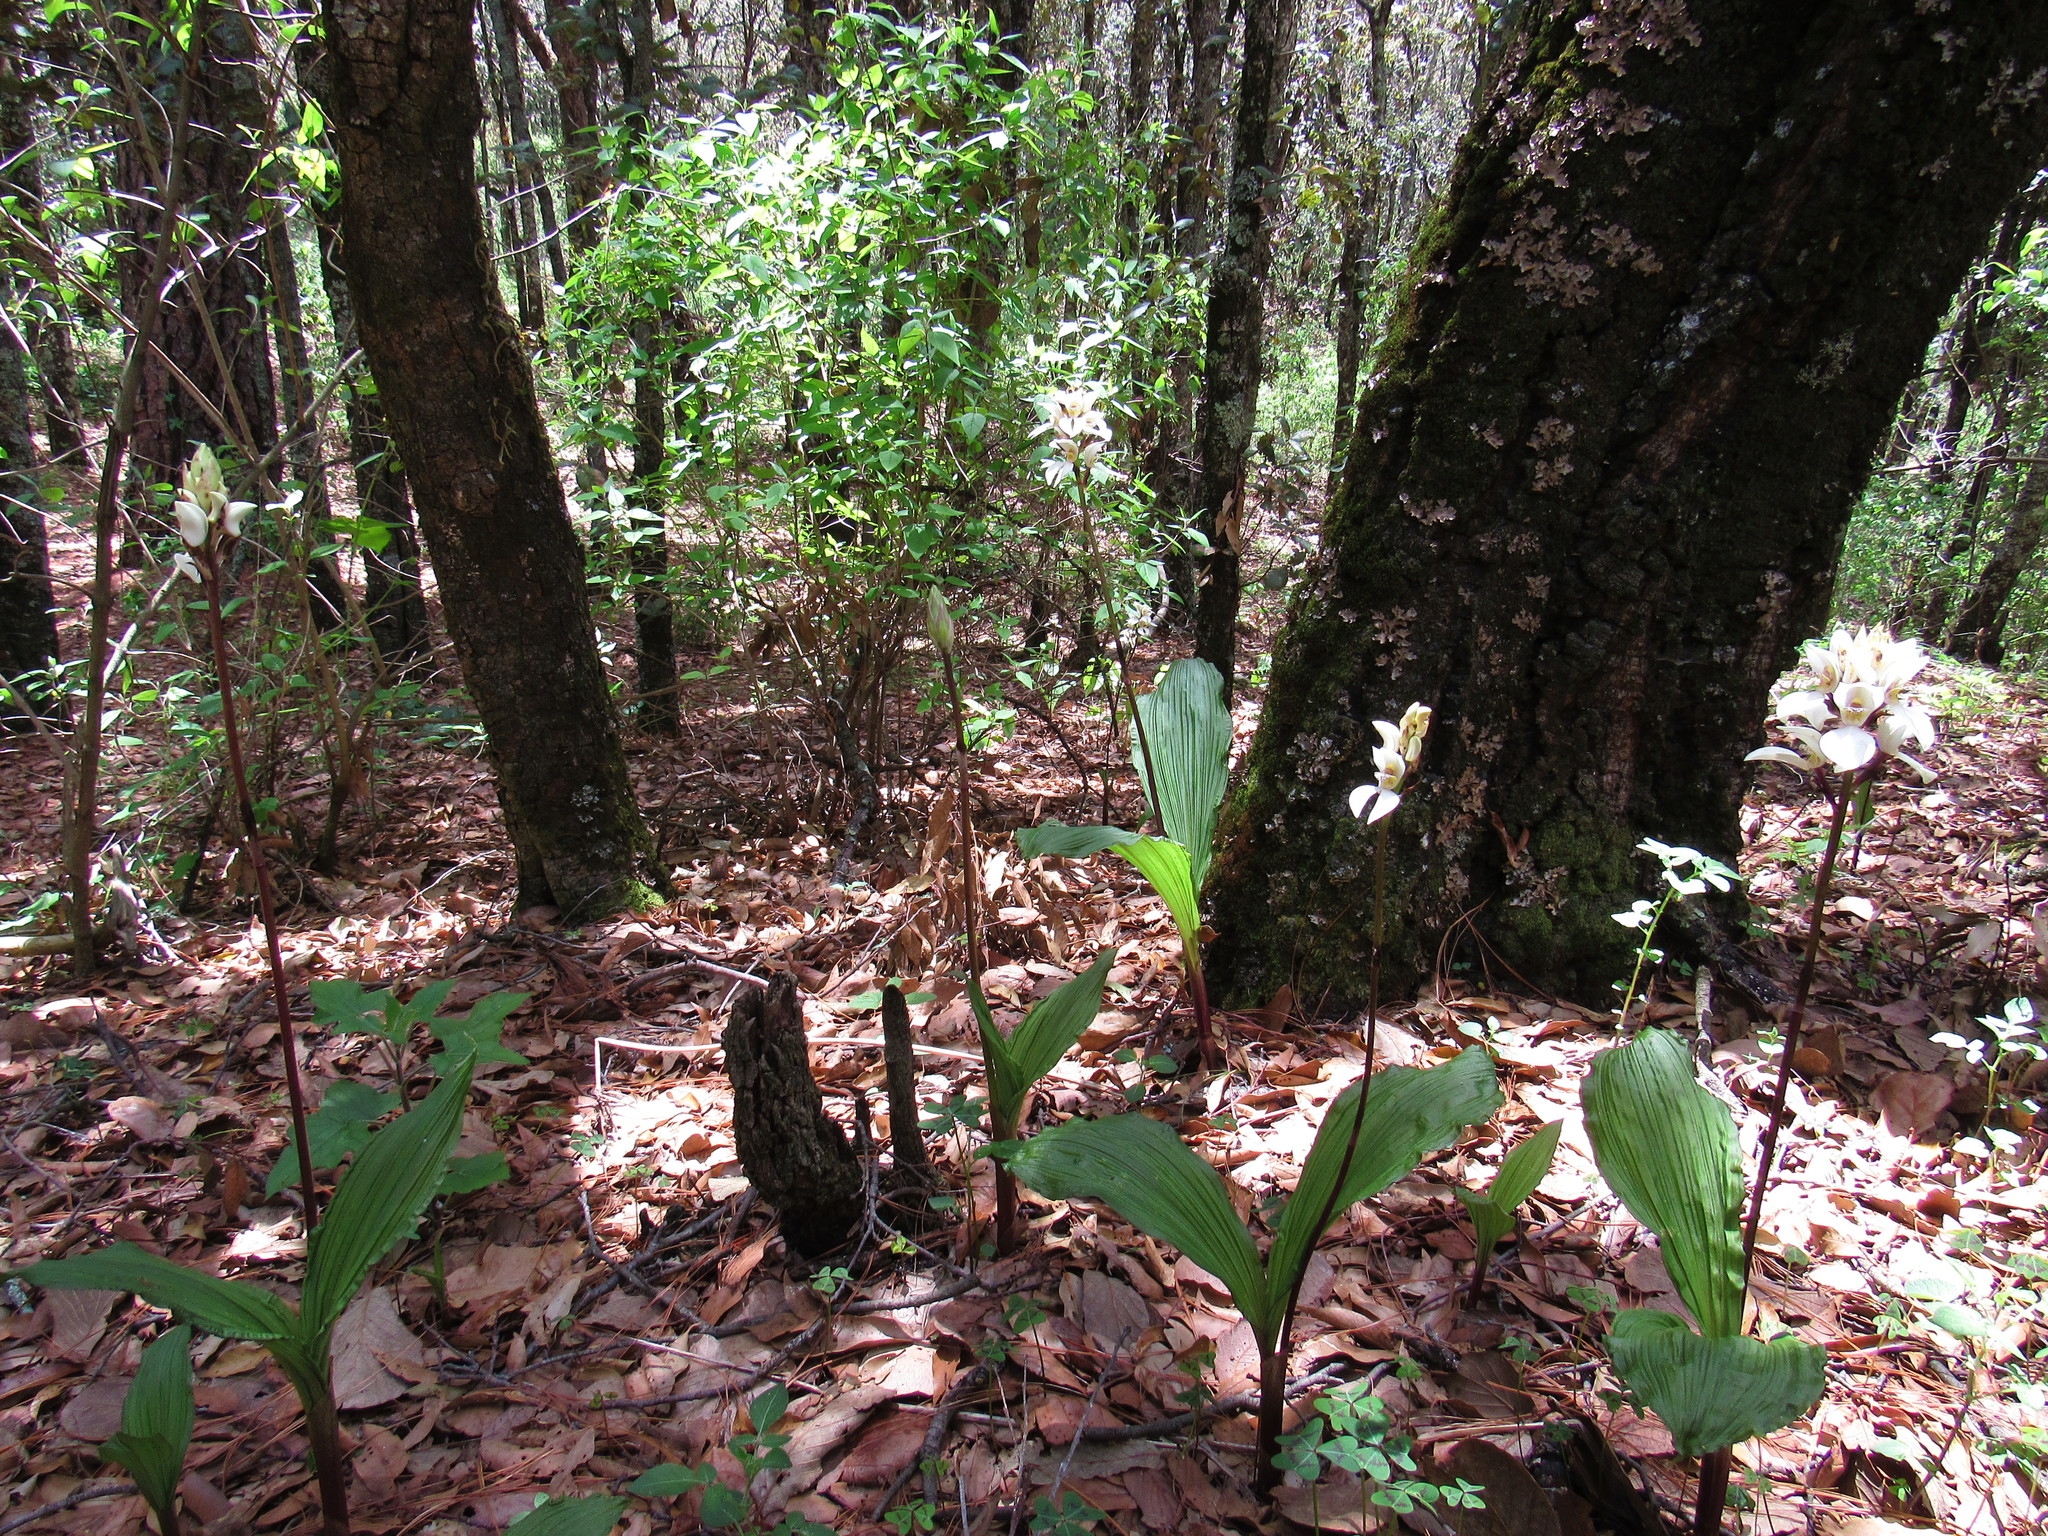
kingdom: Plantae
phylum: Tracheophyta
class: Liliopsida
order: Asparagales
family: Orchidaceae
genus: Govenia
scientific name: Govenia capitata
